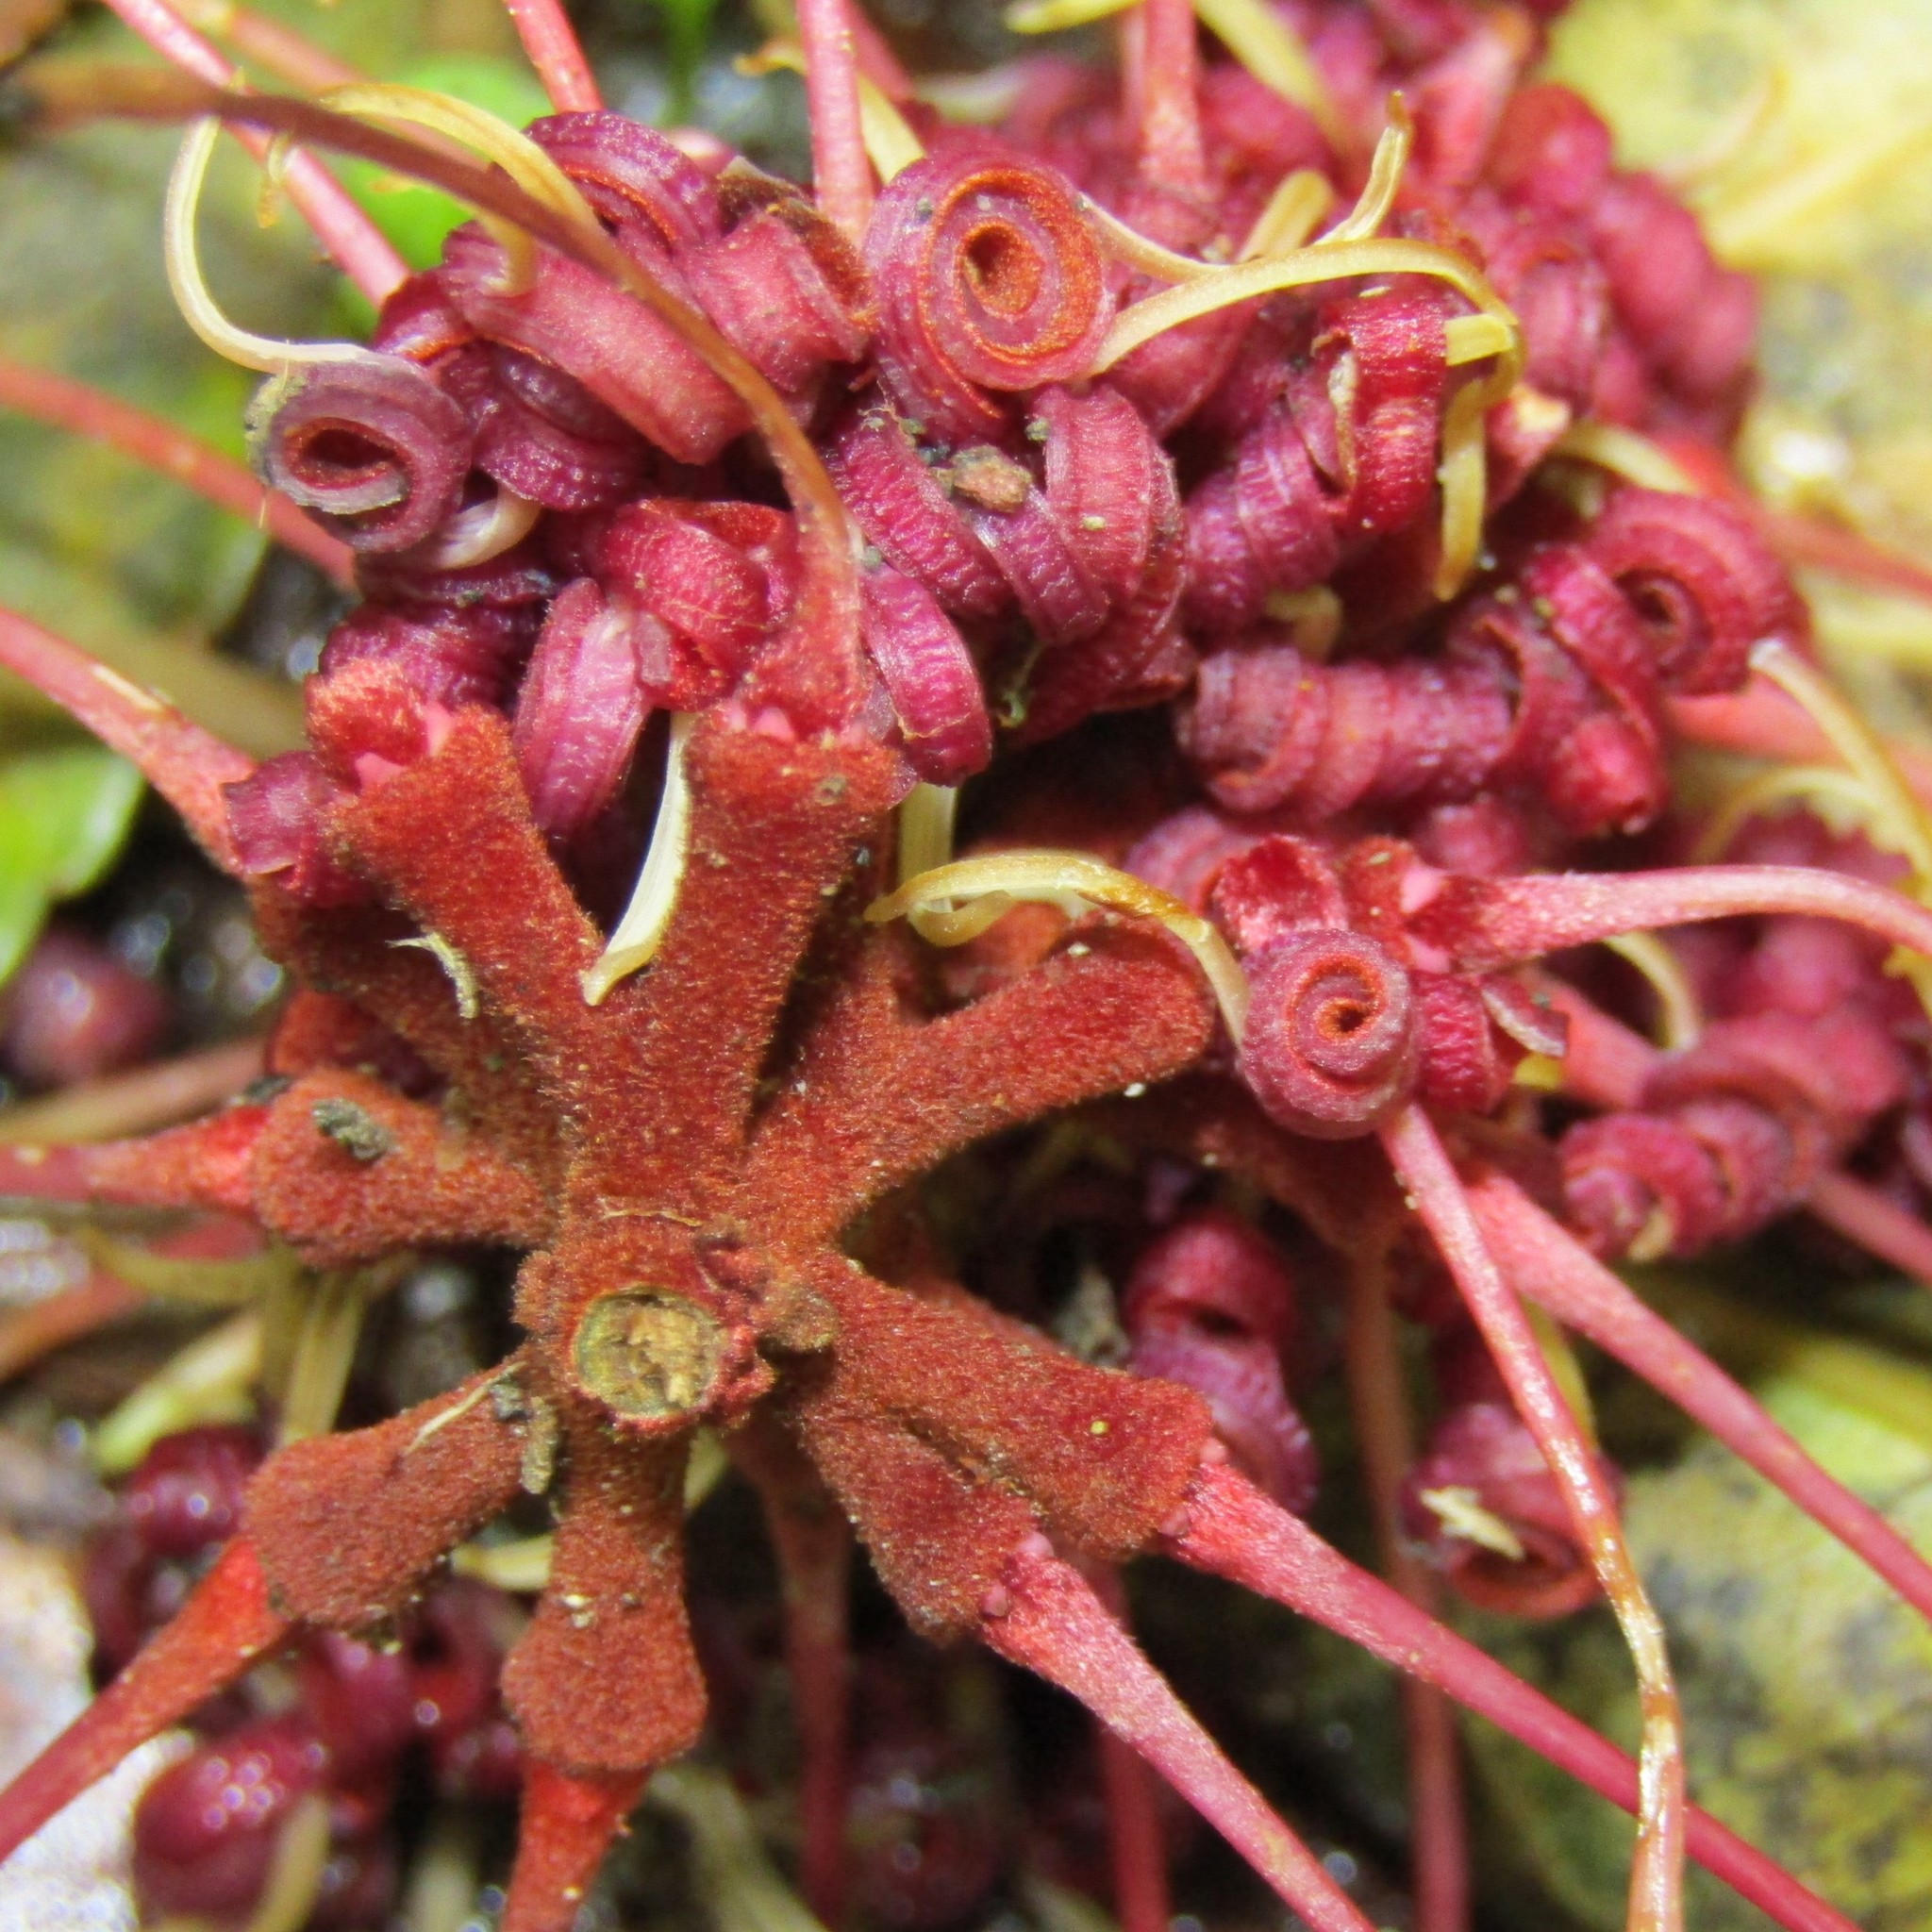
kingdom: Plantae
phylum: Tracheophyta
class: Magnoliopsida
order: Proteales
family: Proteaceae
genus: Knightia
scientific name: Knightia excelsa
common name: New zealand-honeysuckle
